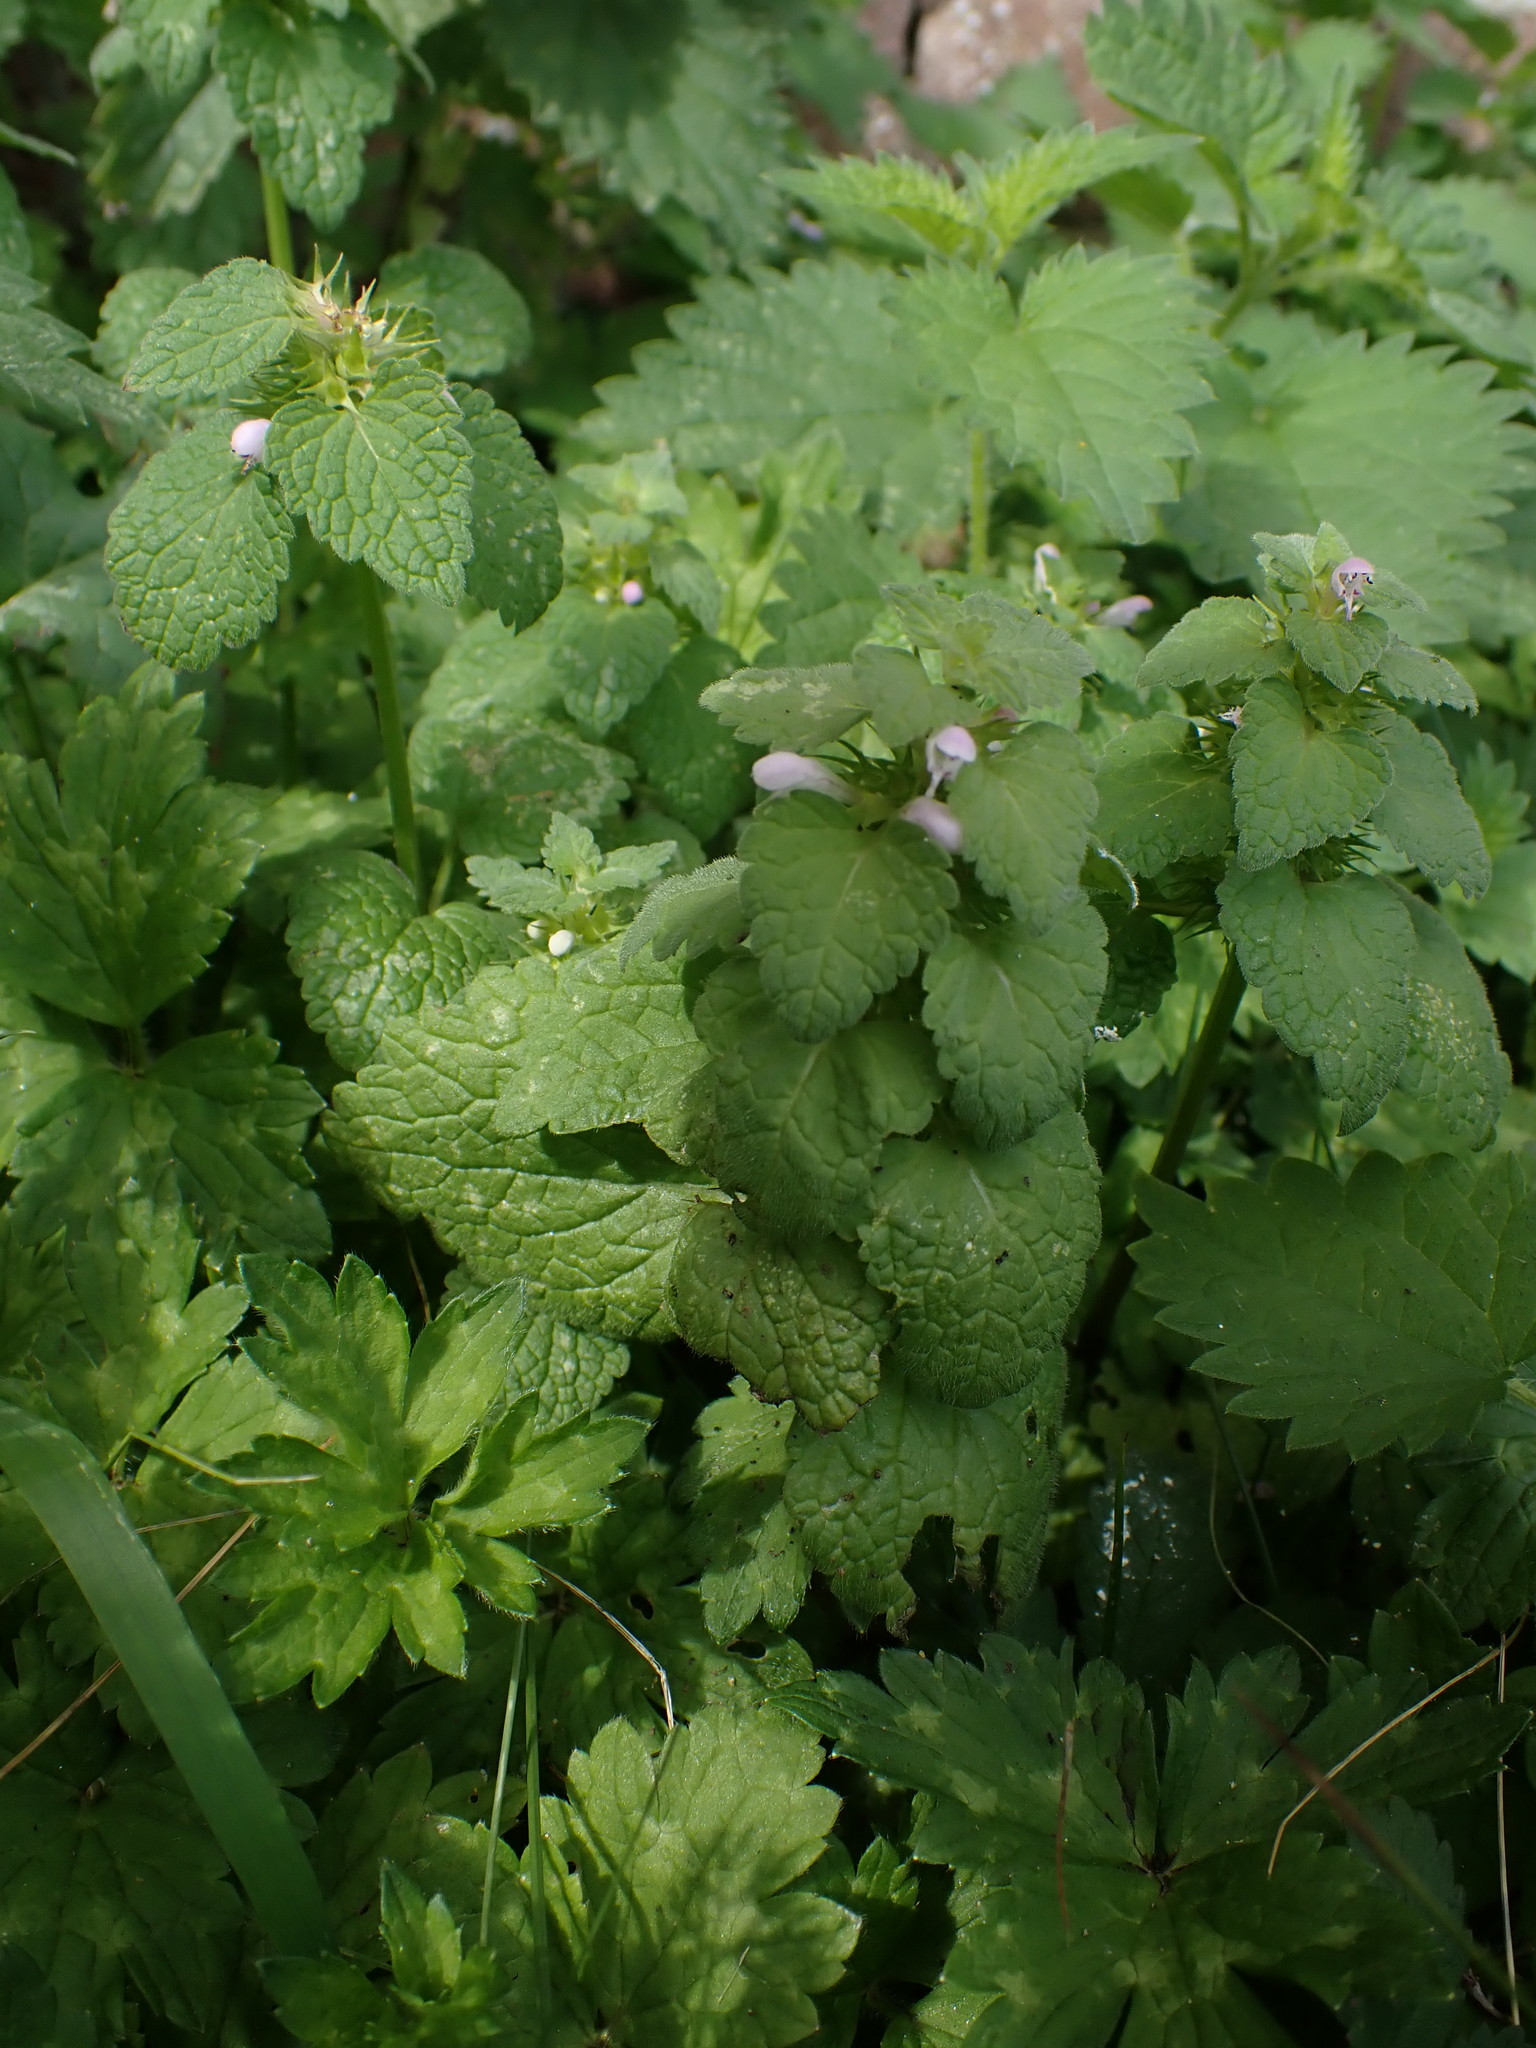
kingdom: Plantae
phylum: Tracheophyta
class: Magnoliopsida
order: Lamiales
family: Lamiaceae
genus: Lamium
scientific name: Lamium purpureum
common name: Red dead-nettle
